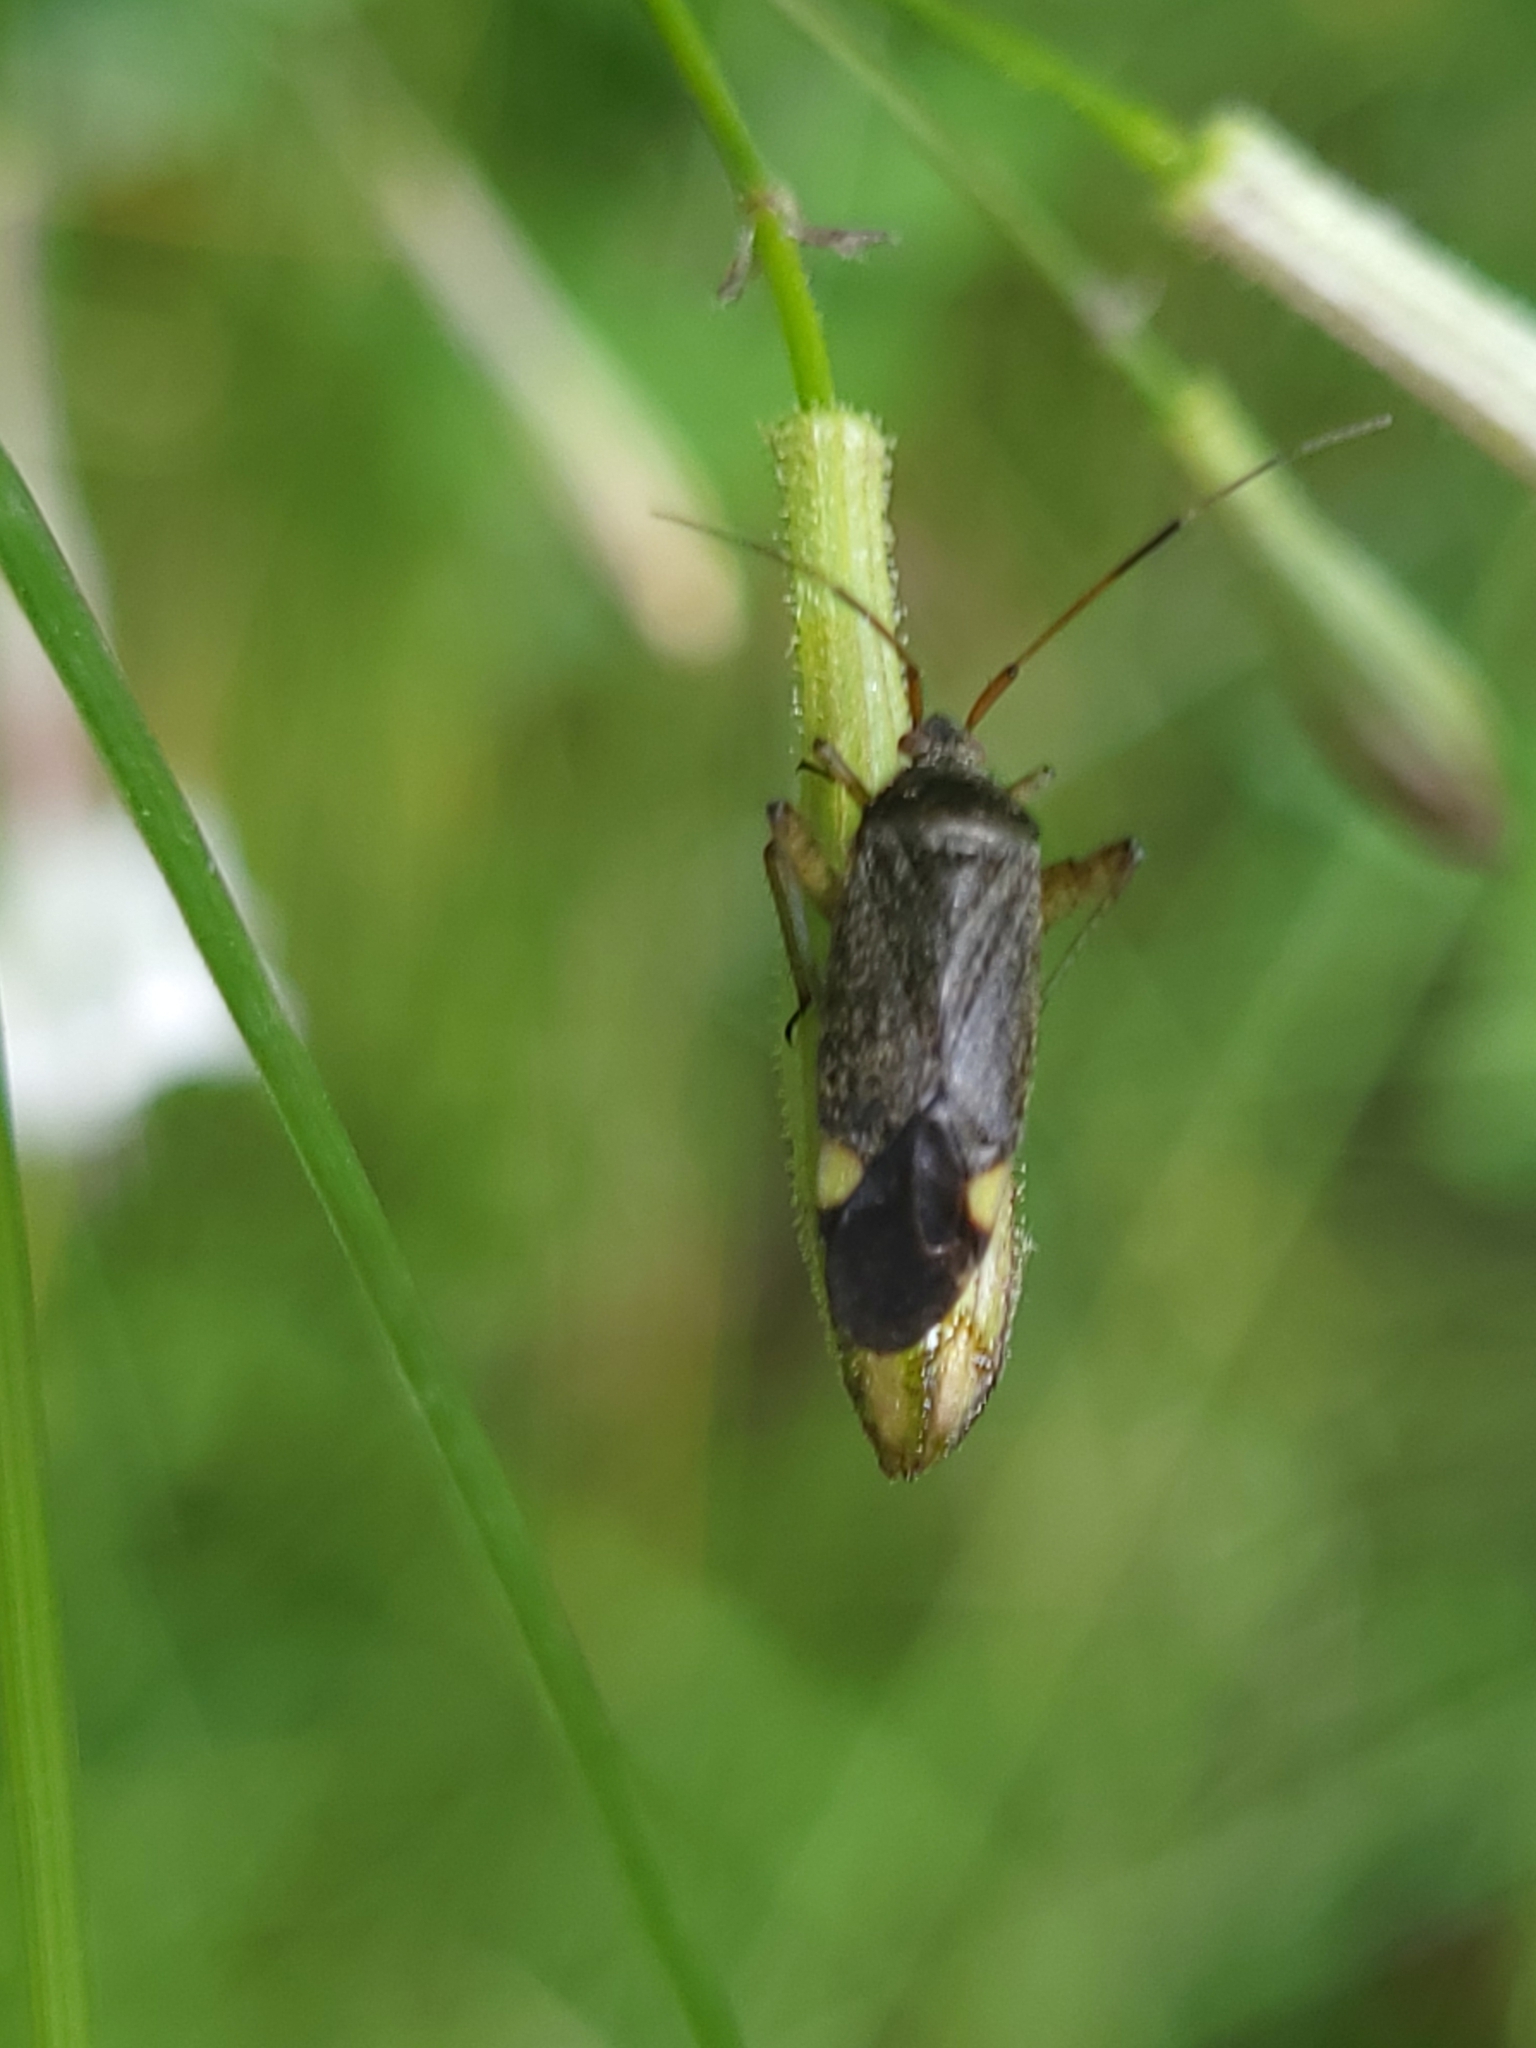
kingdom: Animalia
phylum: Arthropoda
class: Insecta
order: Hemiptera
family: Miridae
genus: Closterotomus
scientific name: Closterotomus annulus
